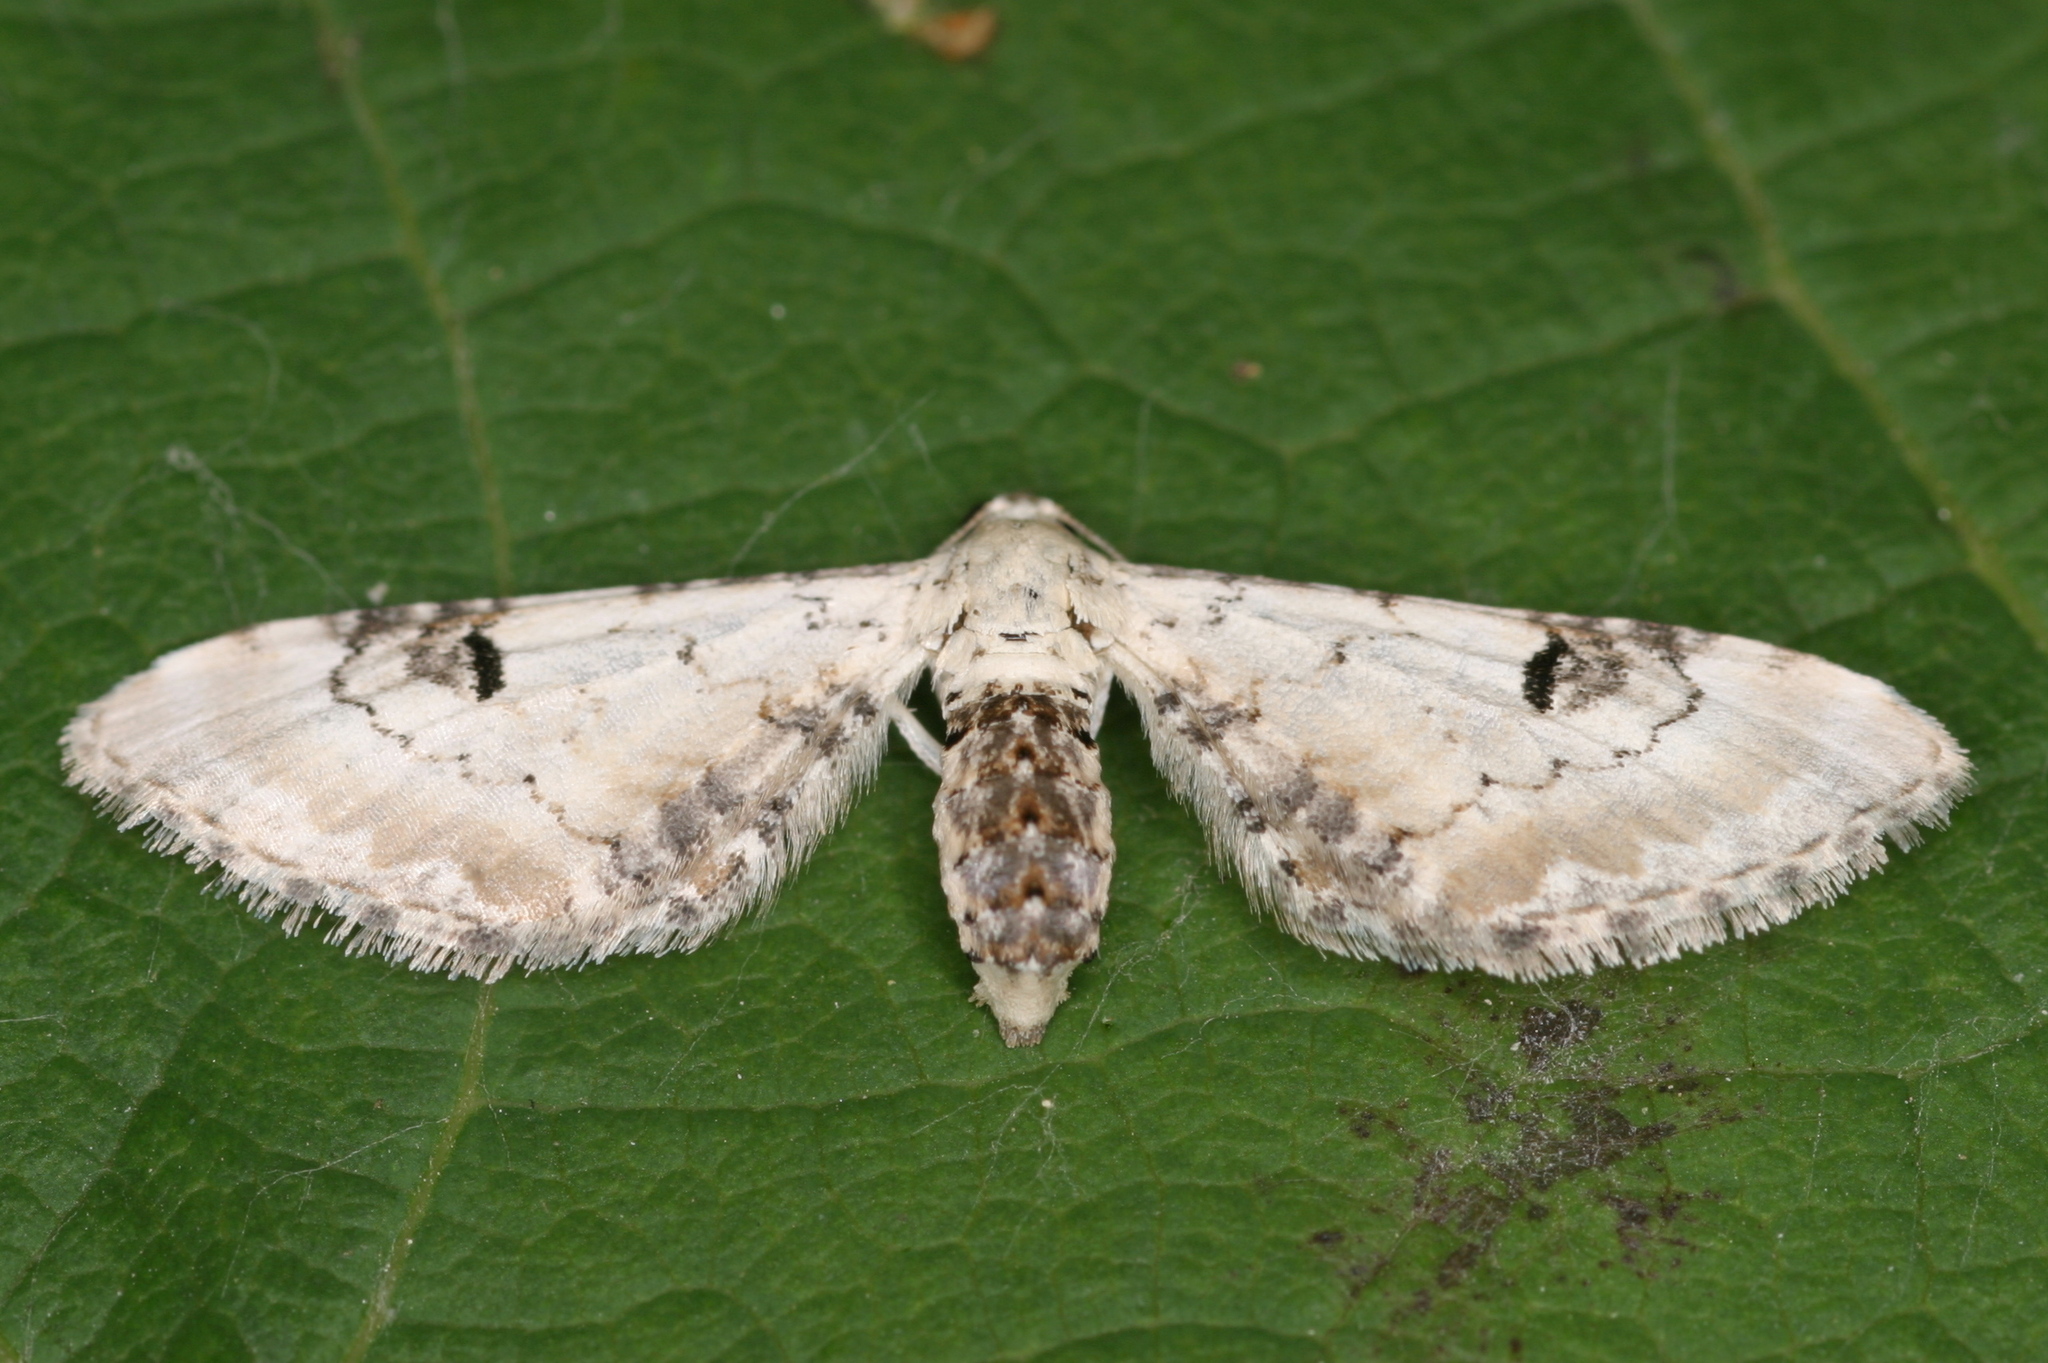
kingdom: Animalia
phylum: Arthropoda
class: Insecta
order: Lepidoptera
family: Geometridae
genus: Eupithecia
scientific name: Eupithecia centaureata
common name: Lime-speck pug
